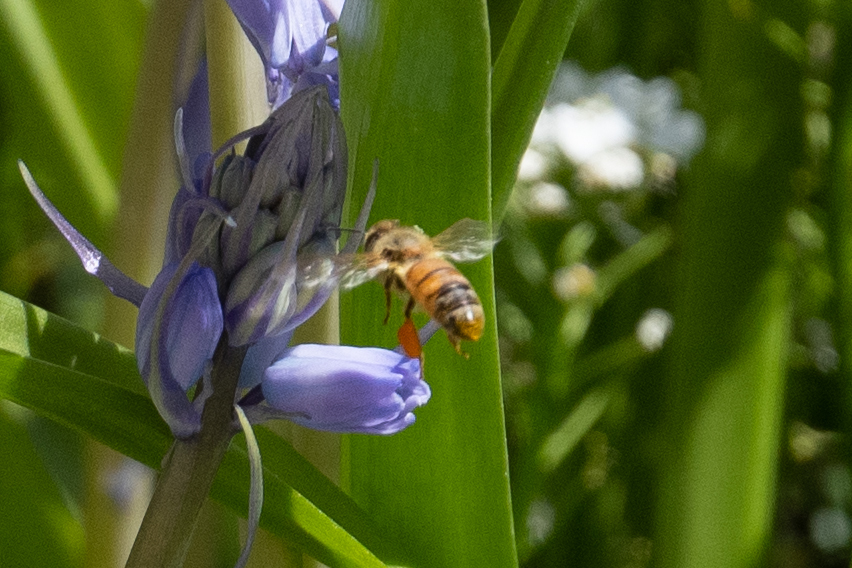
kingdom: Animalia
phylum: Arthropoda
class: Insecta
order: Hymenoptera
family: Apidae
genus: Apis
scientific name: Apis mellifera
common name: Honey bee
